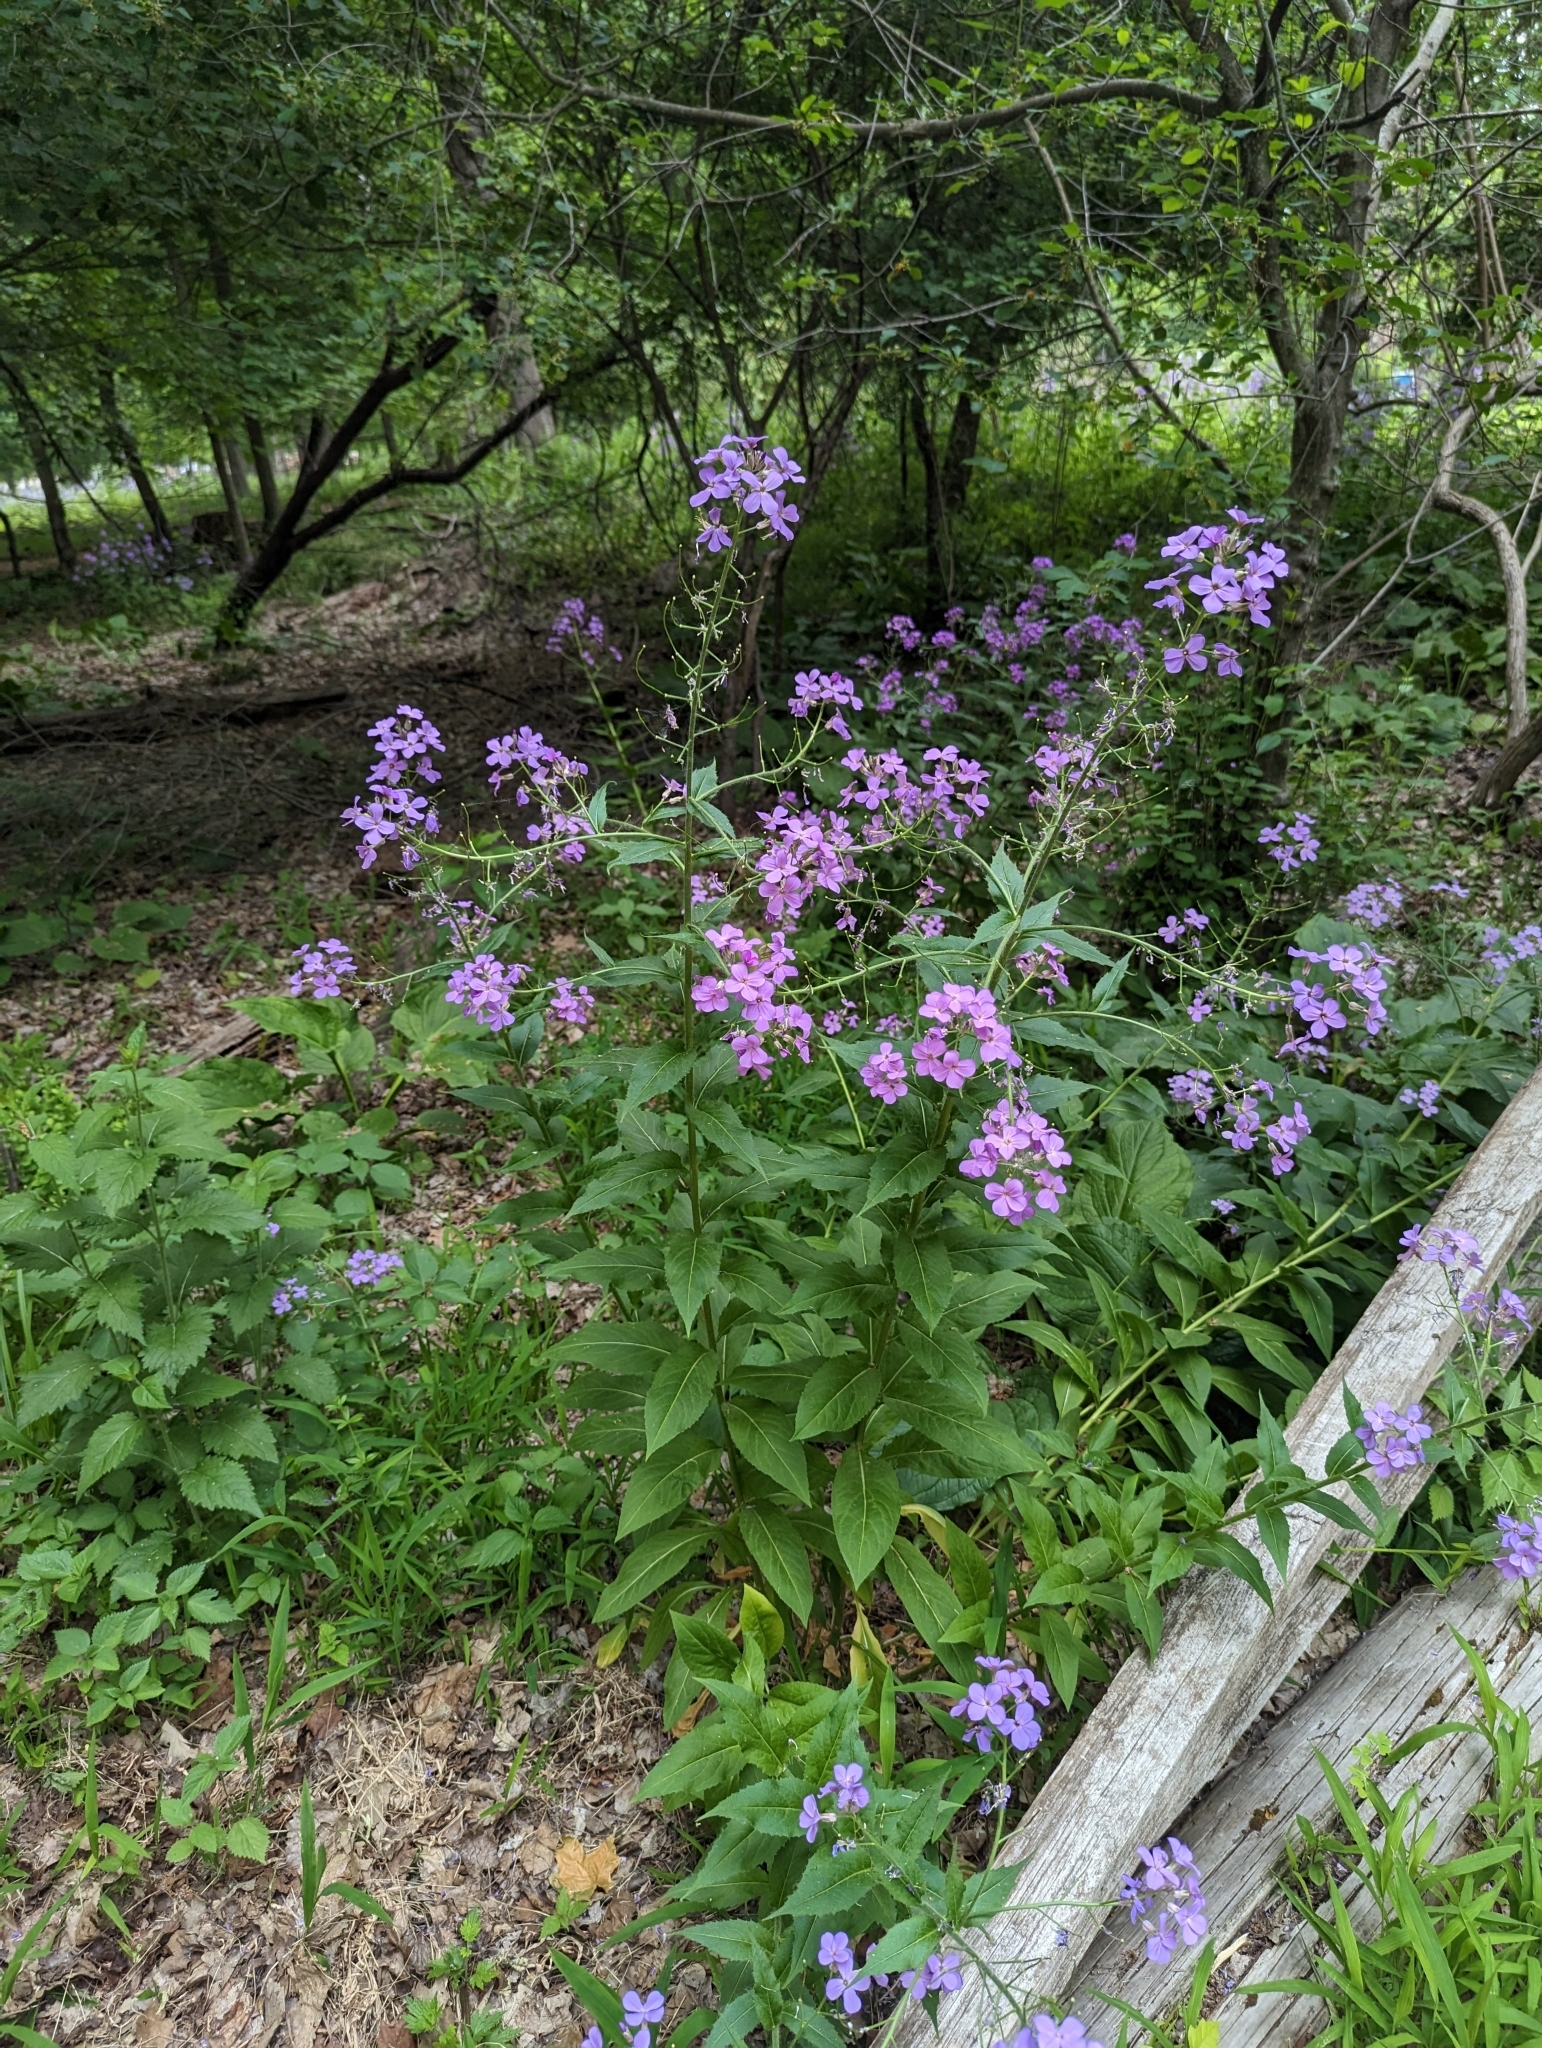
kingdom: Plantae
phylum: Tracheophyta
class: Magnoliopsida
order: Brassicales
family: Brassicaceae
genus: Hesperis
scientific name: Hesperis matronalis
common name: Dame's-violet
